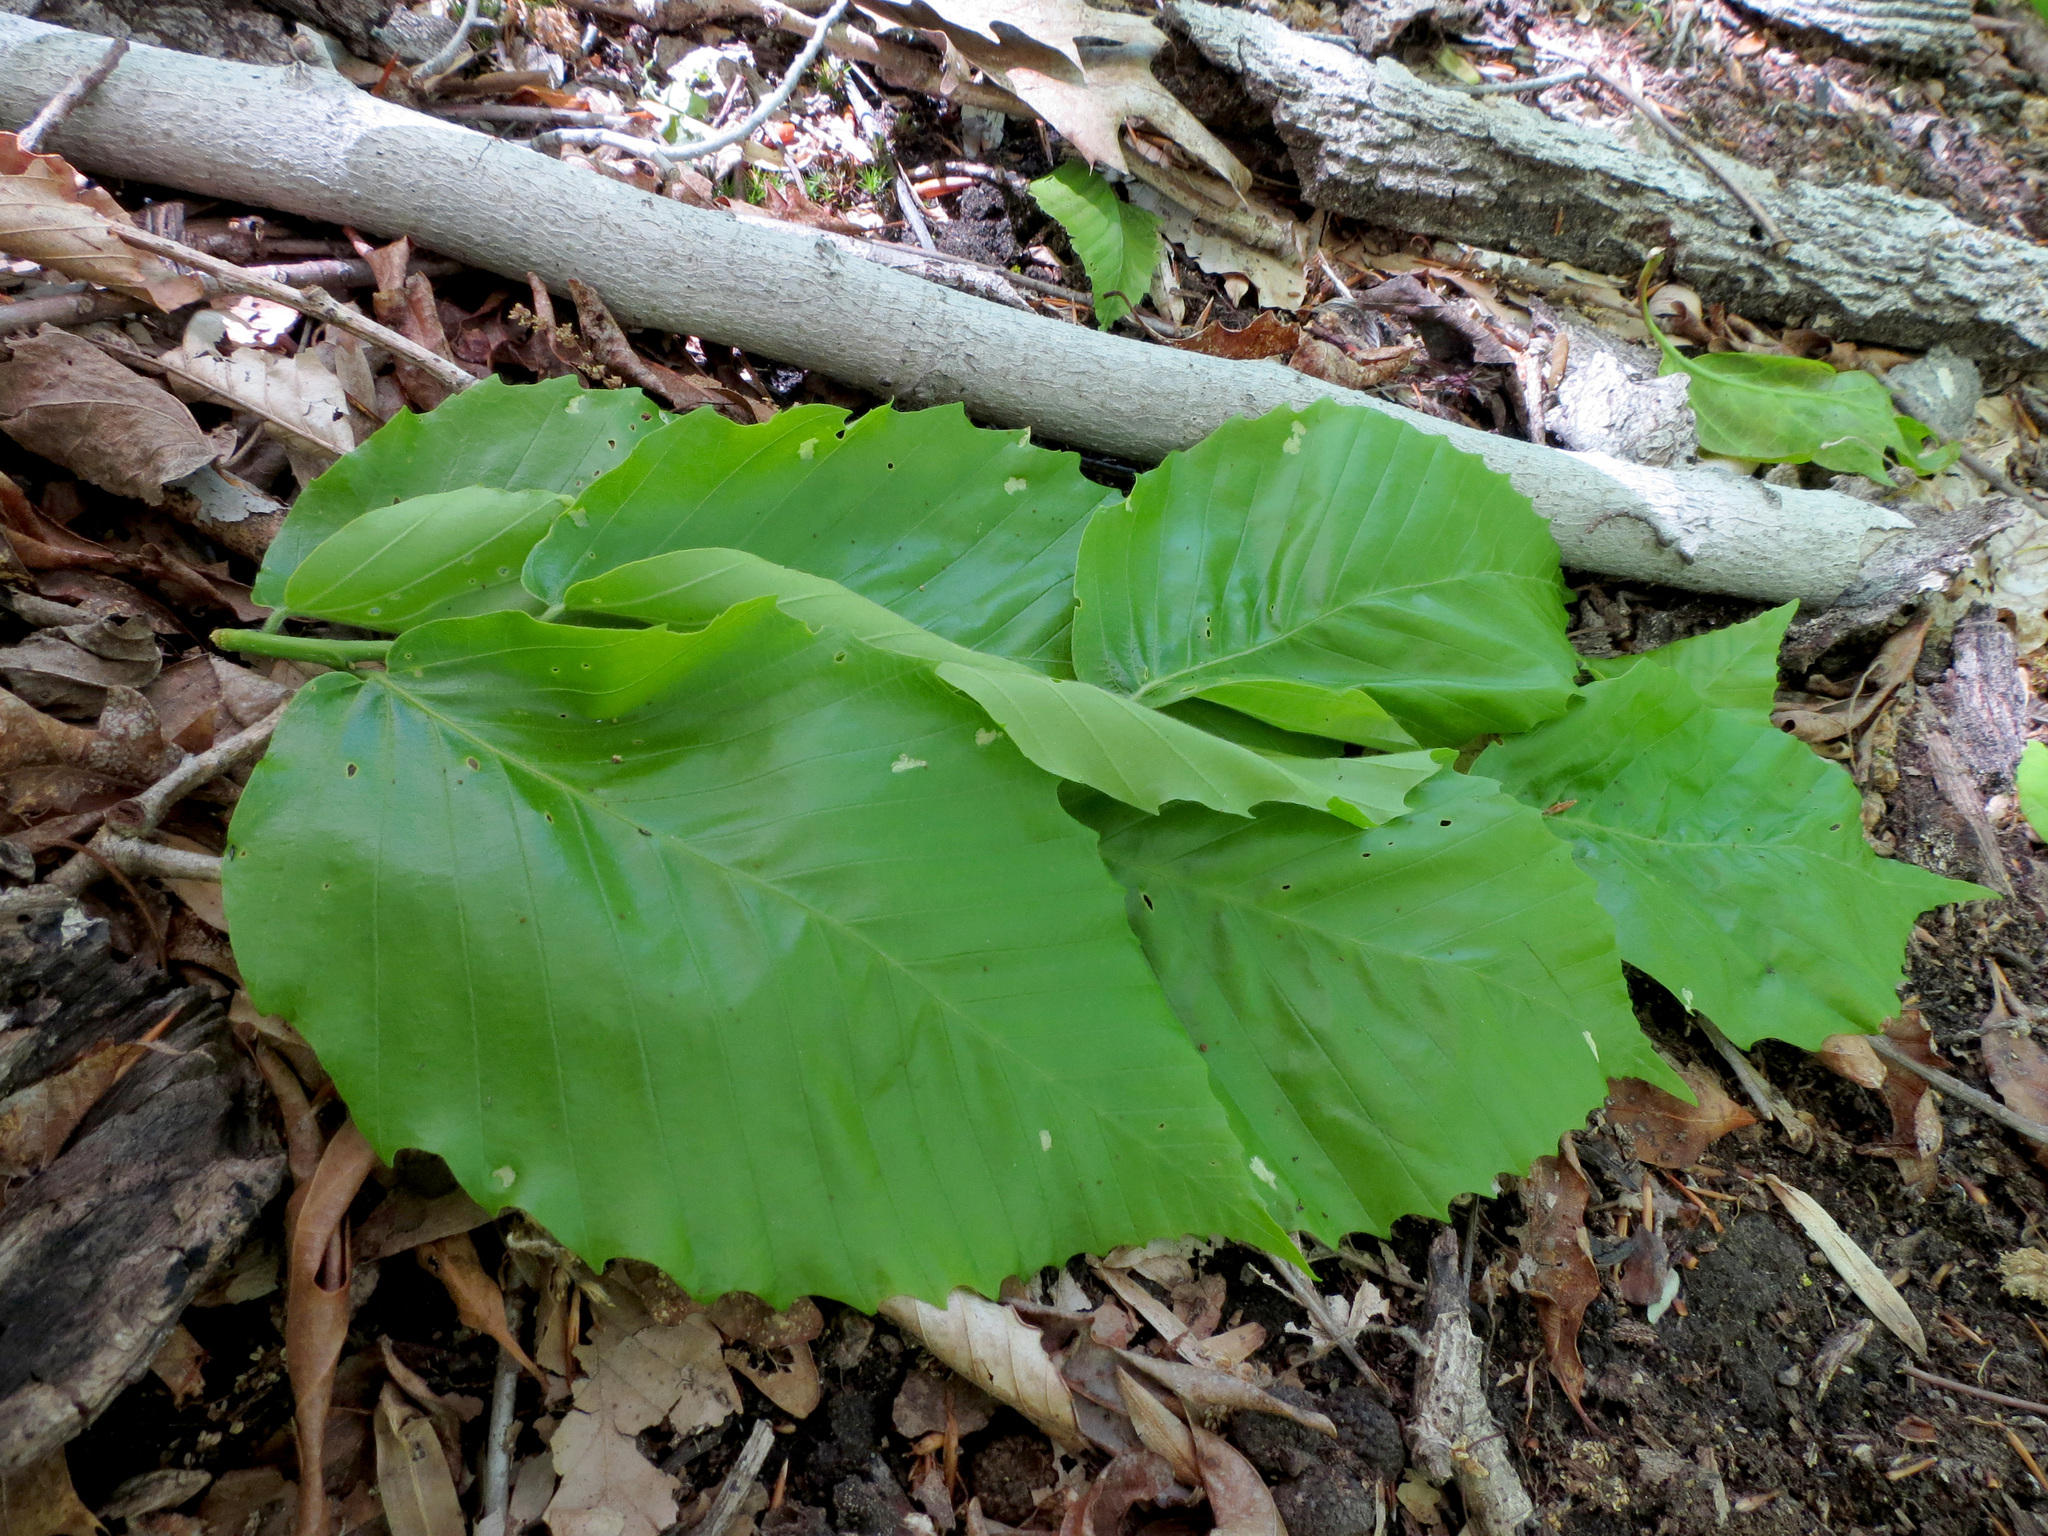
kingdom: Plantae
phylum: Tracheophyta
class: Magnoliopsida
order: Fagales
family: Fagaceae
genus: Fagus
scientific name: Fagus grandifolia
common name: American beech
